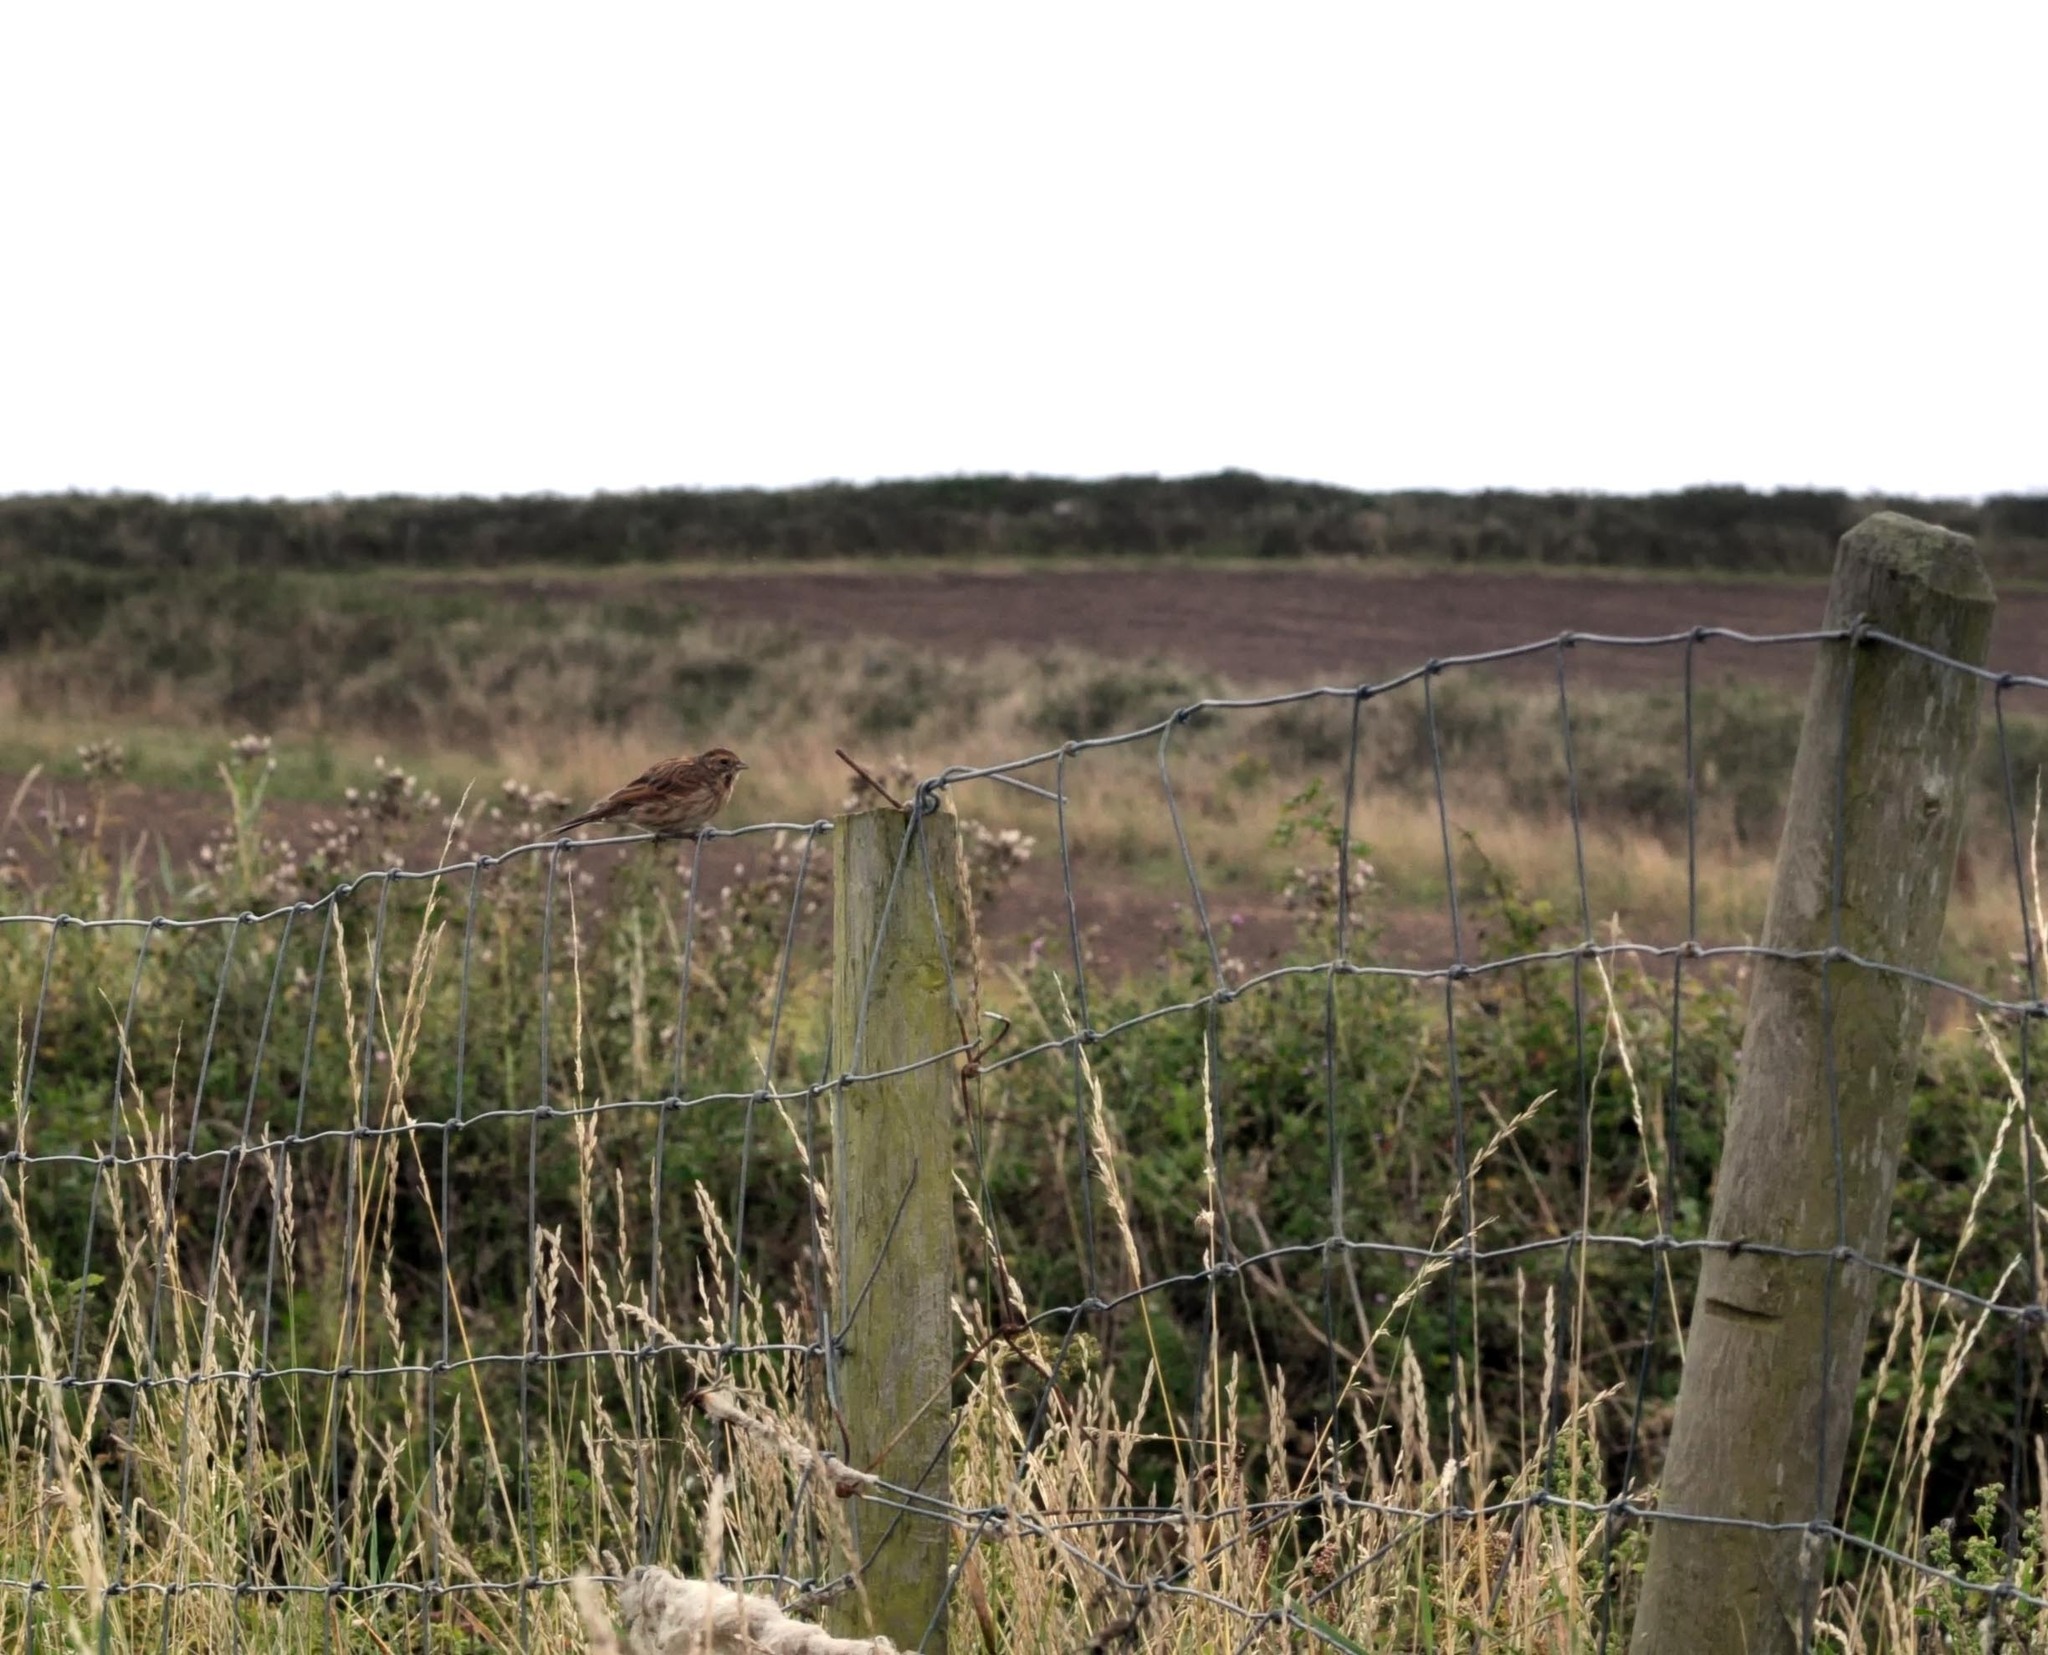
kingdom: Animalia
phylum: Chordata
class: Aves
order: Passeriformes
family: Emberizidae
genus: Emberiza
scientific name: Emberiza schoeniclus
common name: Reed bunting
